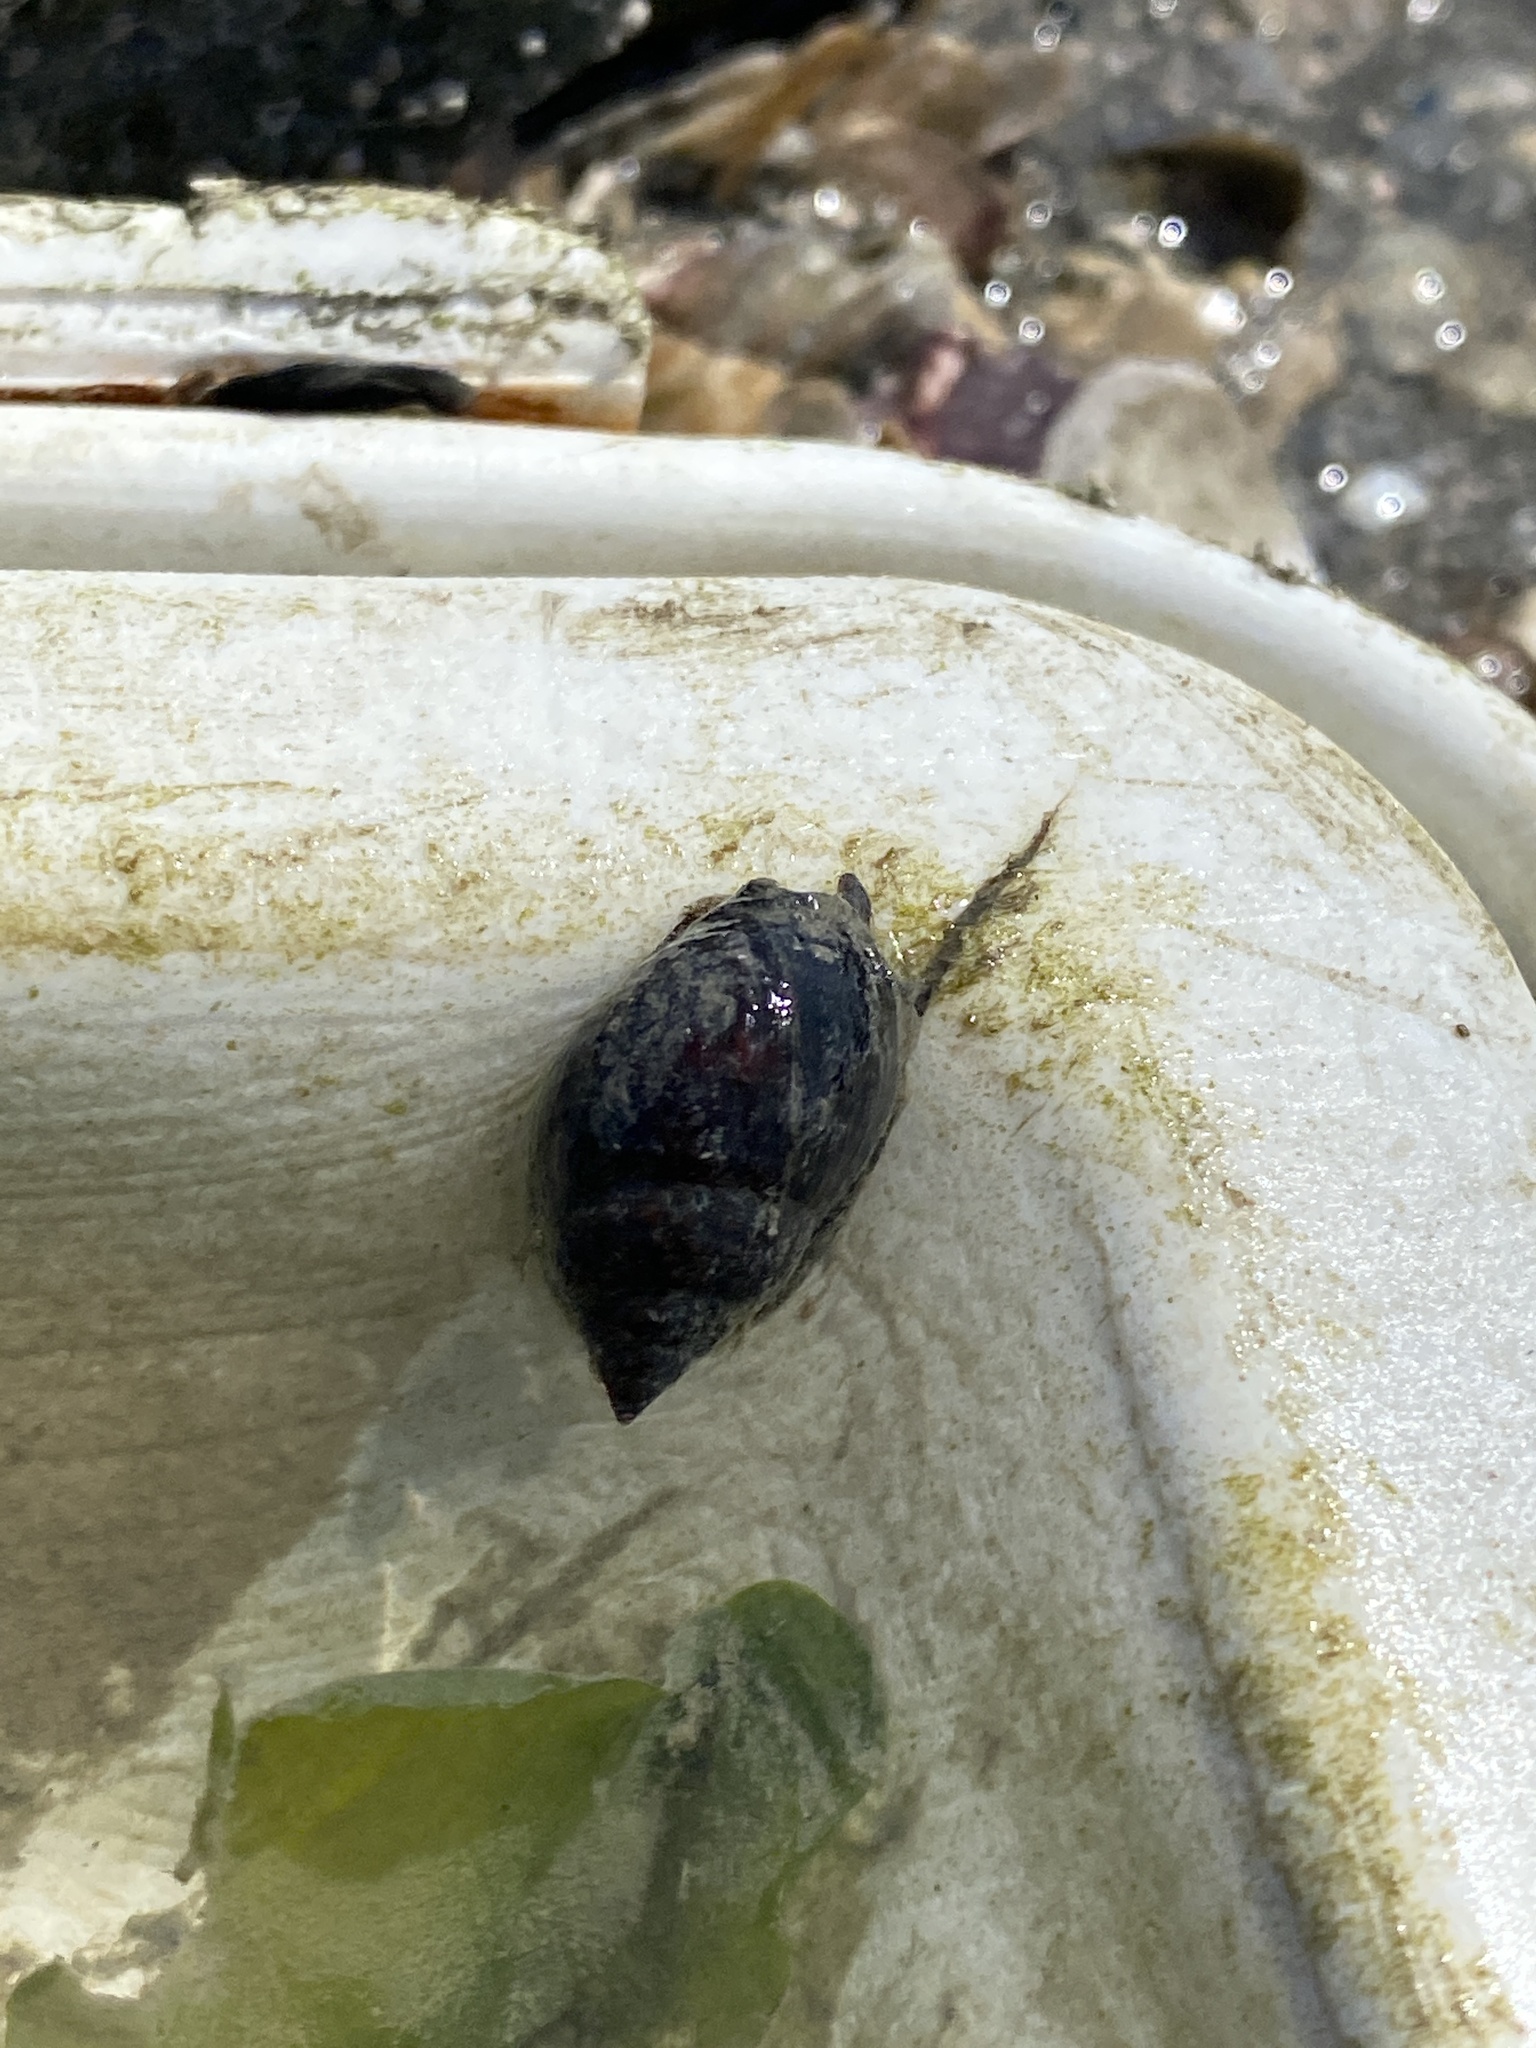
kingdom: Animalia
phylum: Mollusca
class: Gastropoda
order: Neogastropoda
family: Nassariidae
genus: Ilyanassa
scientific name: Ilyanassa obsoleta
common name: Eastern mudsnail
